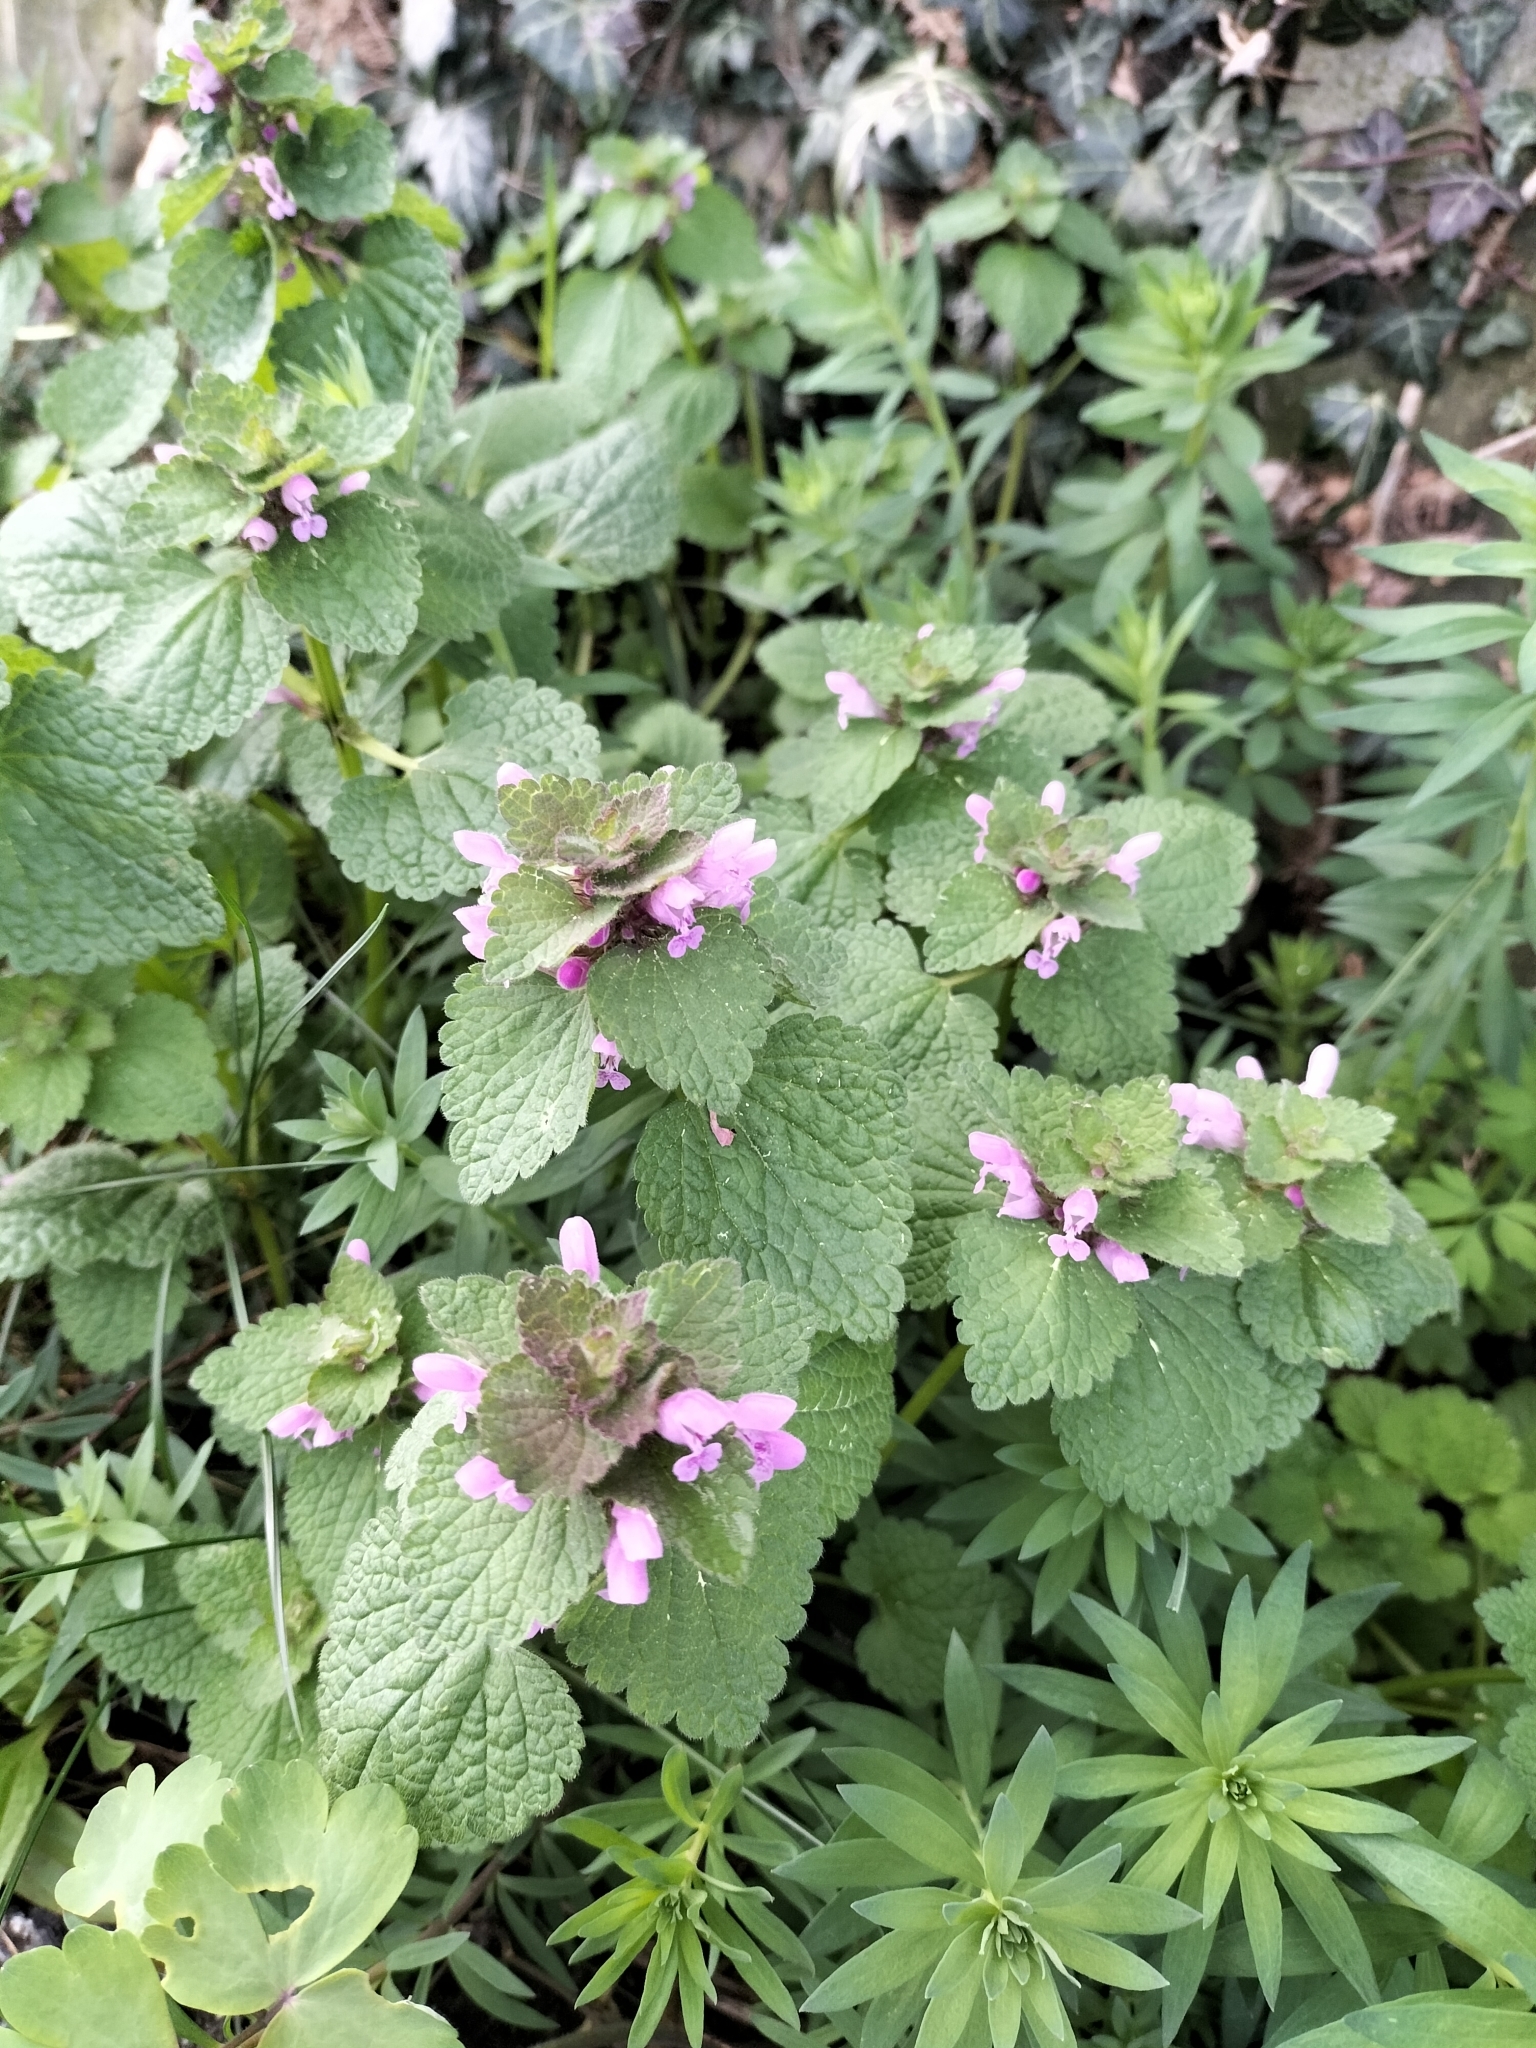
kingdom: Plantae
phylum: Tracheophyta
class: Magnoliopsida
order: Lamiales
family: Lamiaceae
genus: Lamium
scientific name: Lamium purpureum
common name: Red dead-nettle
